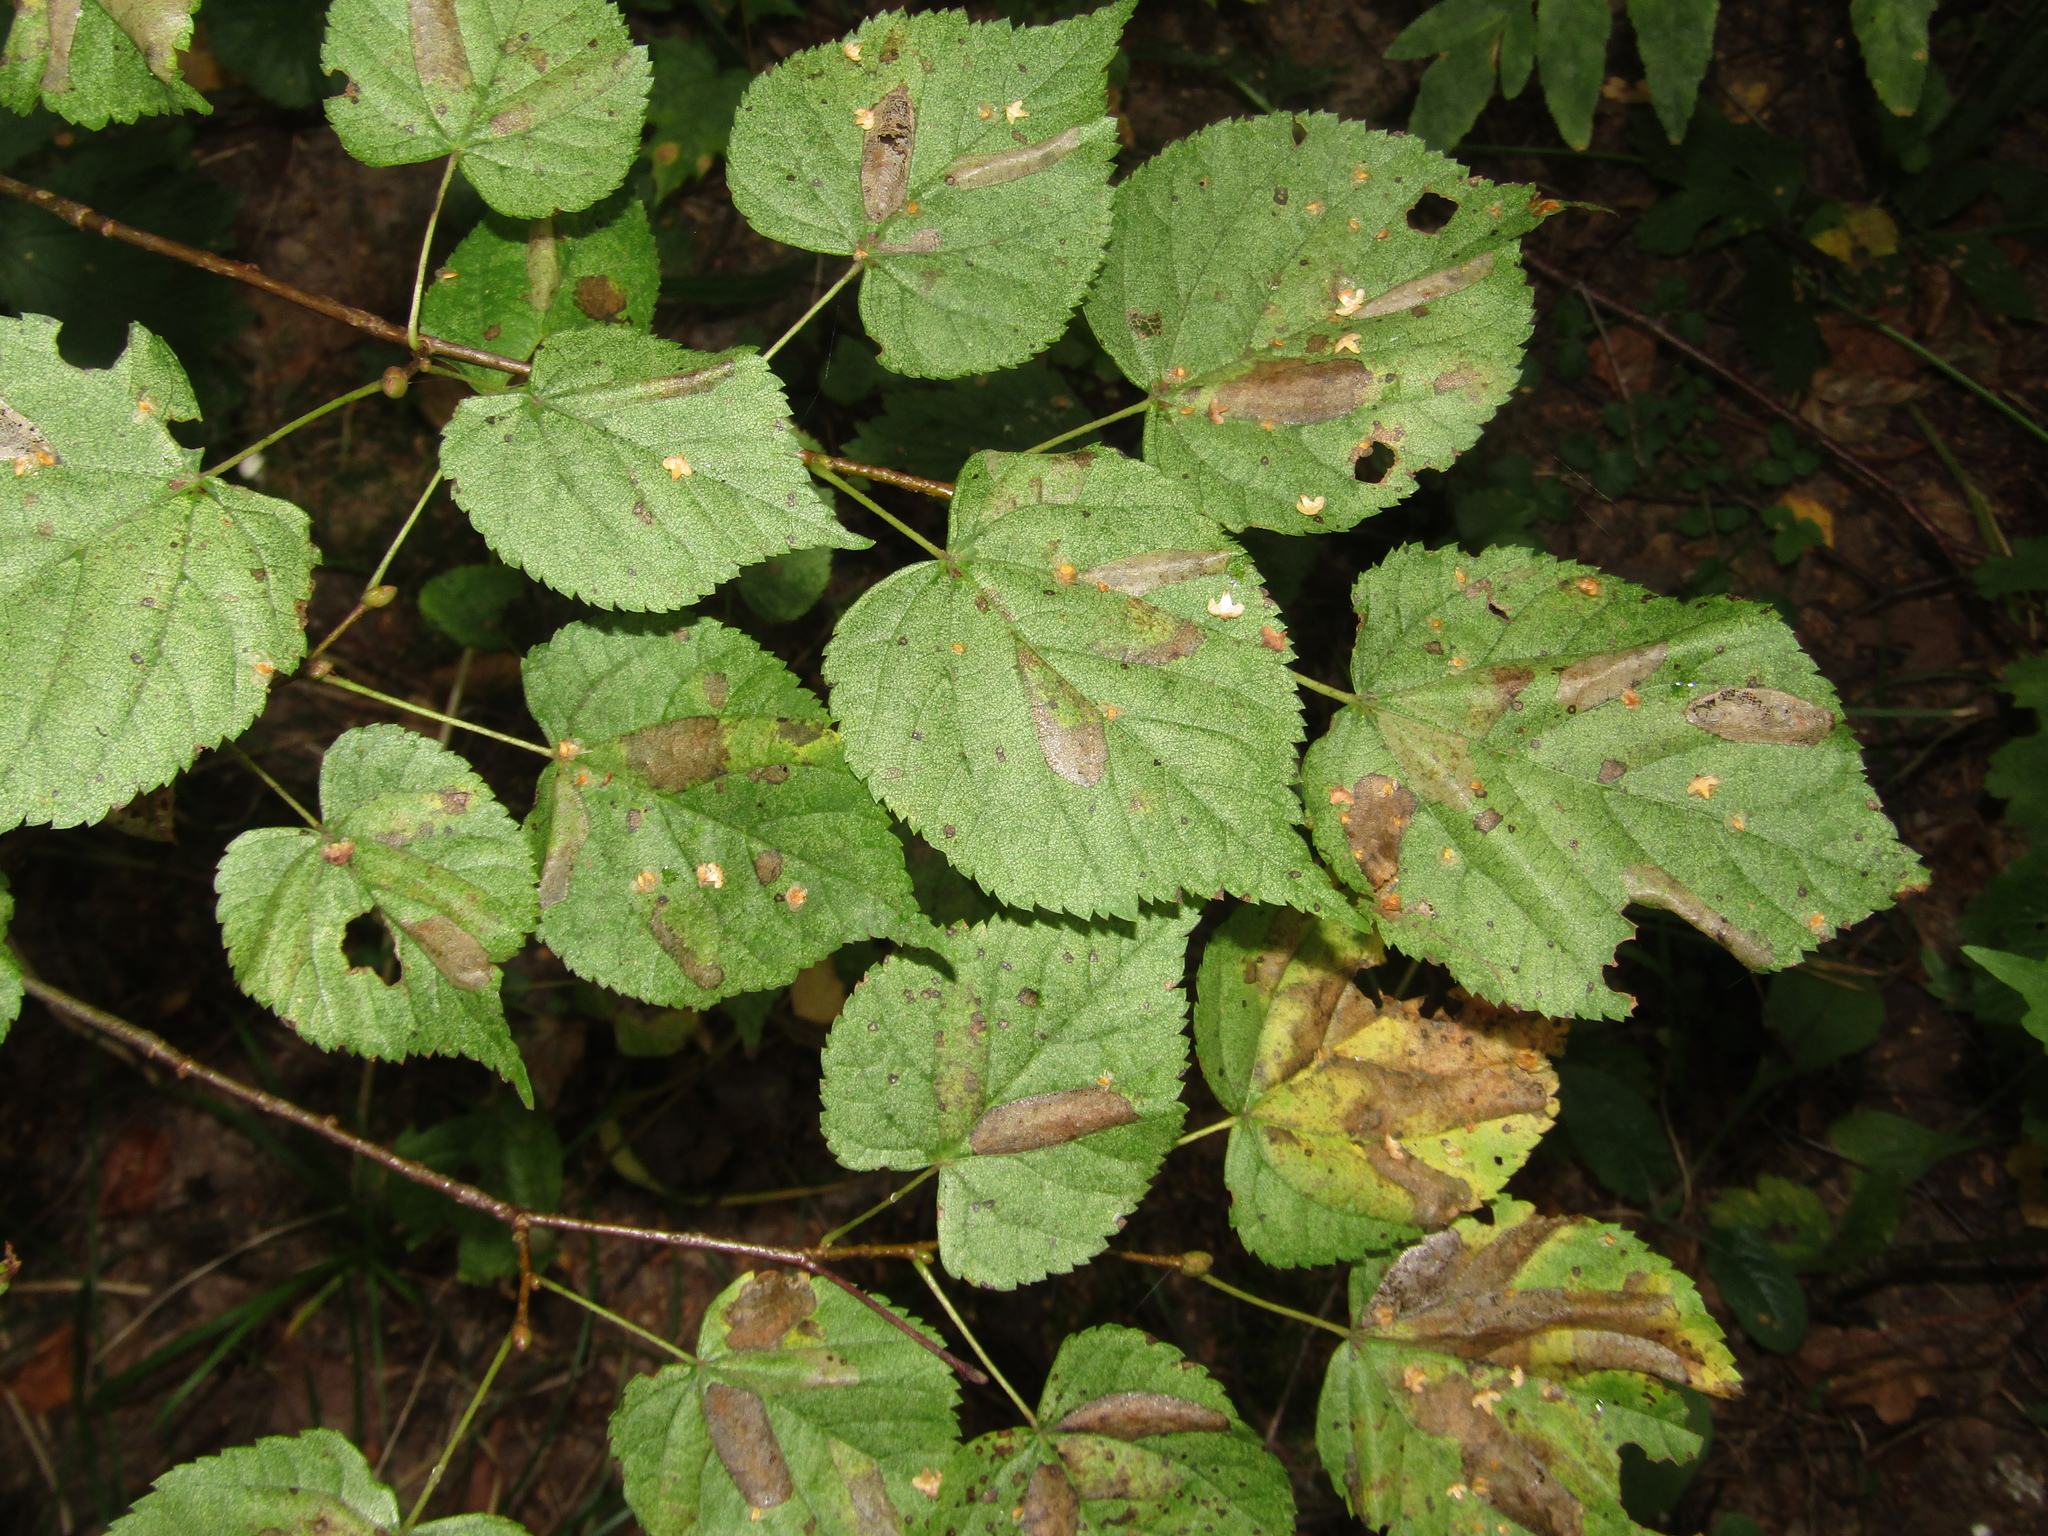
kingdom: Plantae
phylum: Tracheophyta
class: Magnoliopsida
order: Malvales
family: Malvaceae
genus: Tilia
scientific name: Tilia cordata
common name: Small-leaved lime
